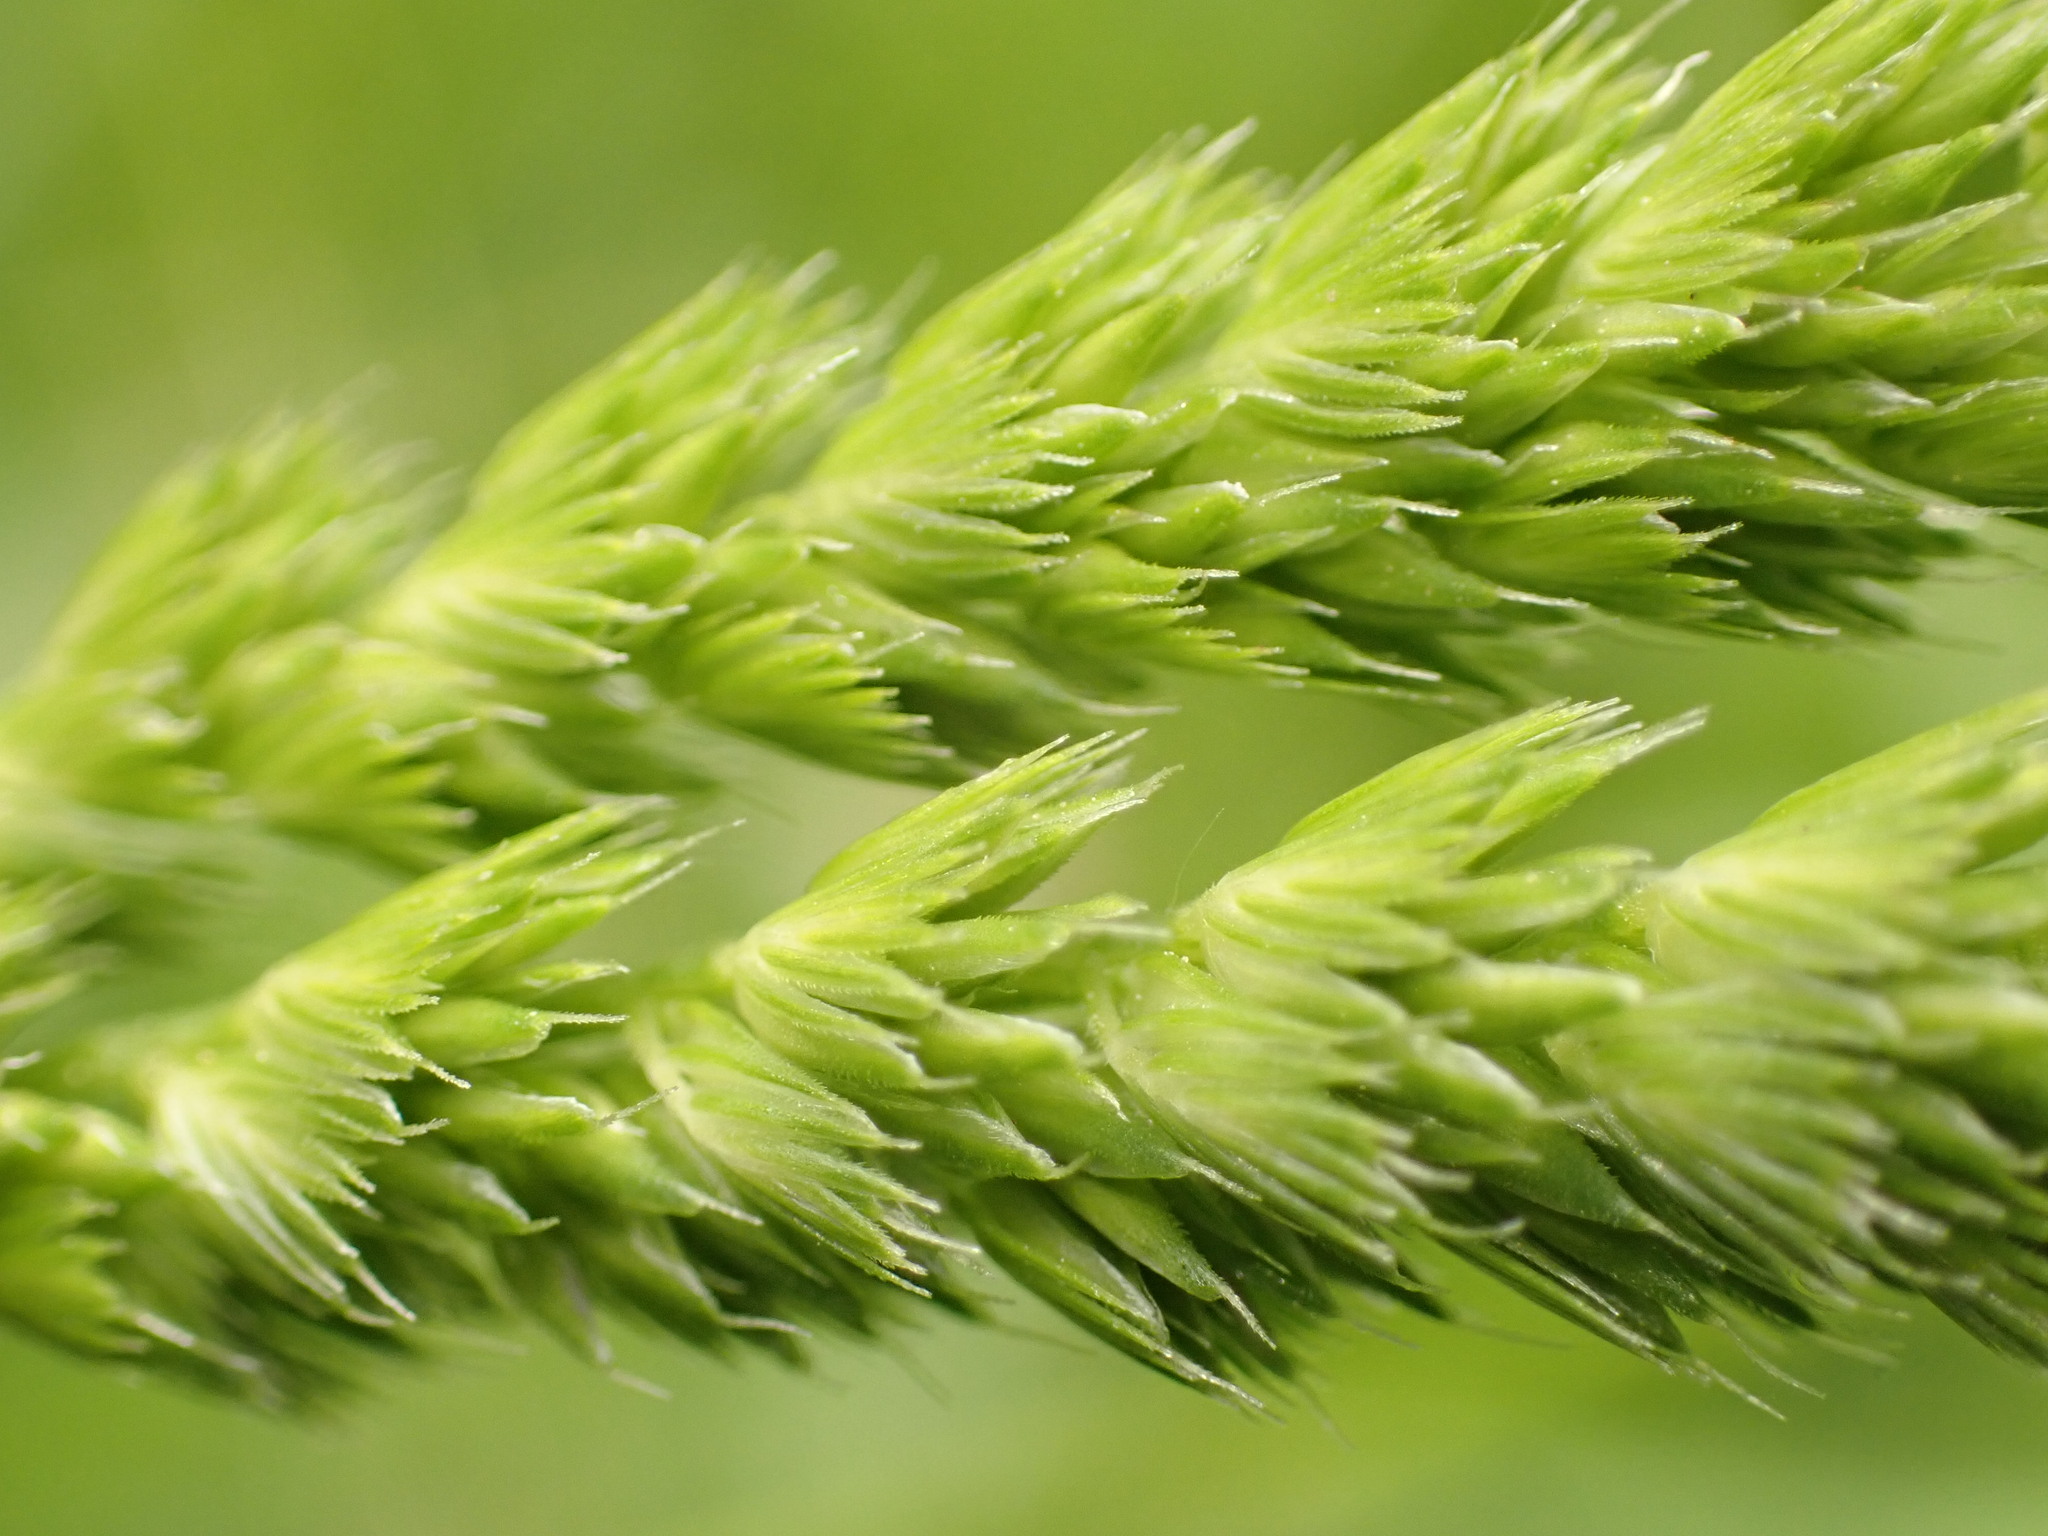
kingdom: Plantae
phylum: Tracheophyta
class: Liliopsida
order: Poales
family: Poaceae
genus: Cynosurus
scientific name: Cynosurus cristatus
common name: Crested dog's-tail
